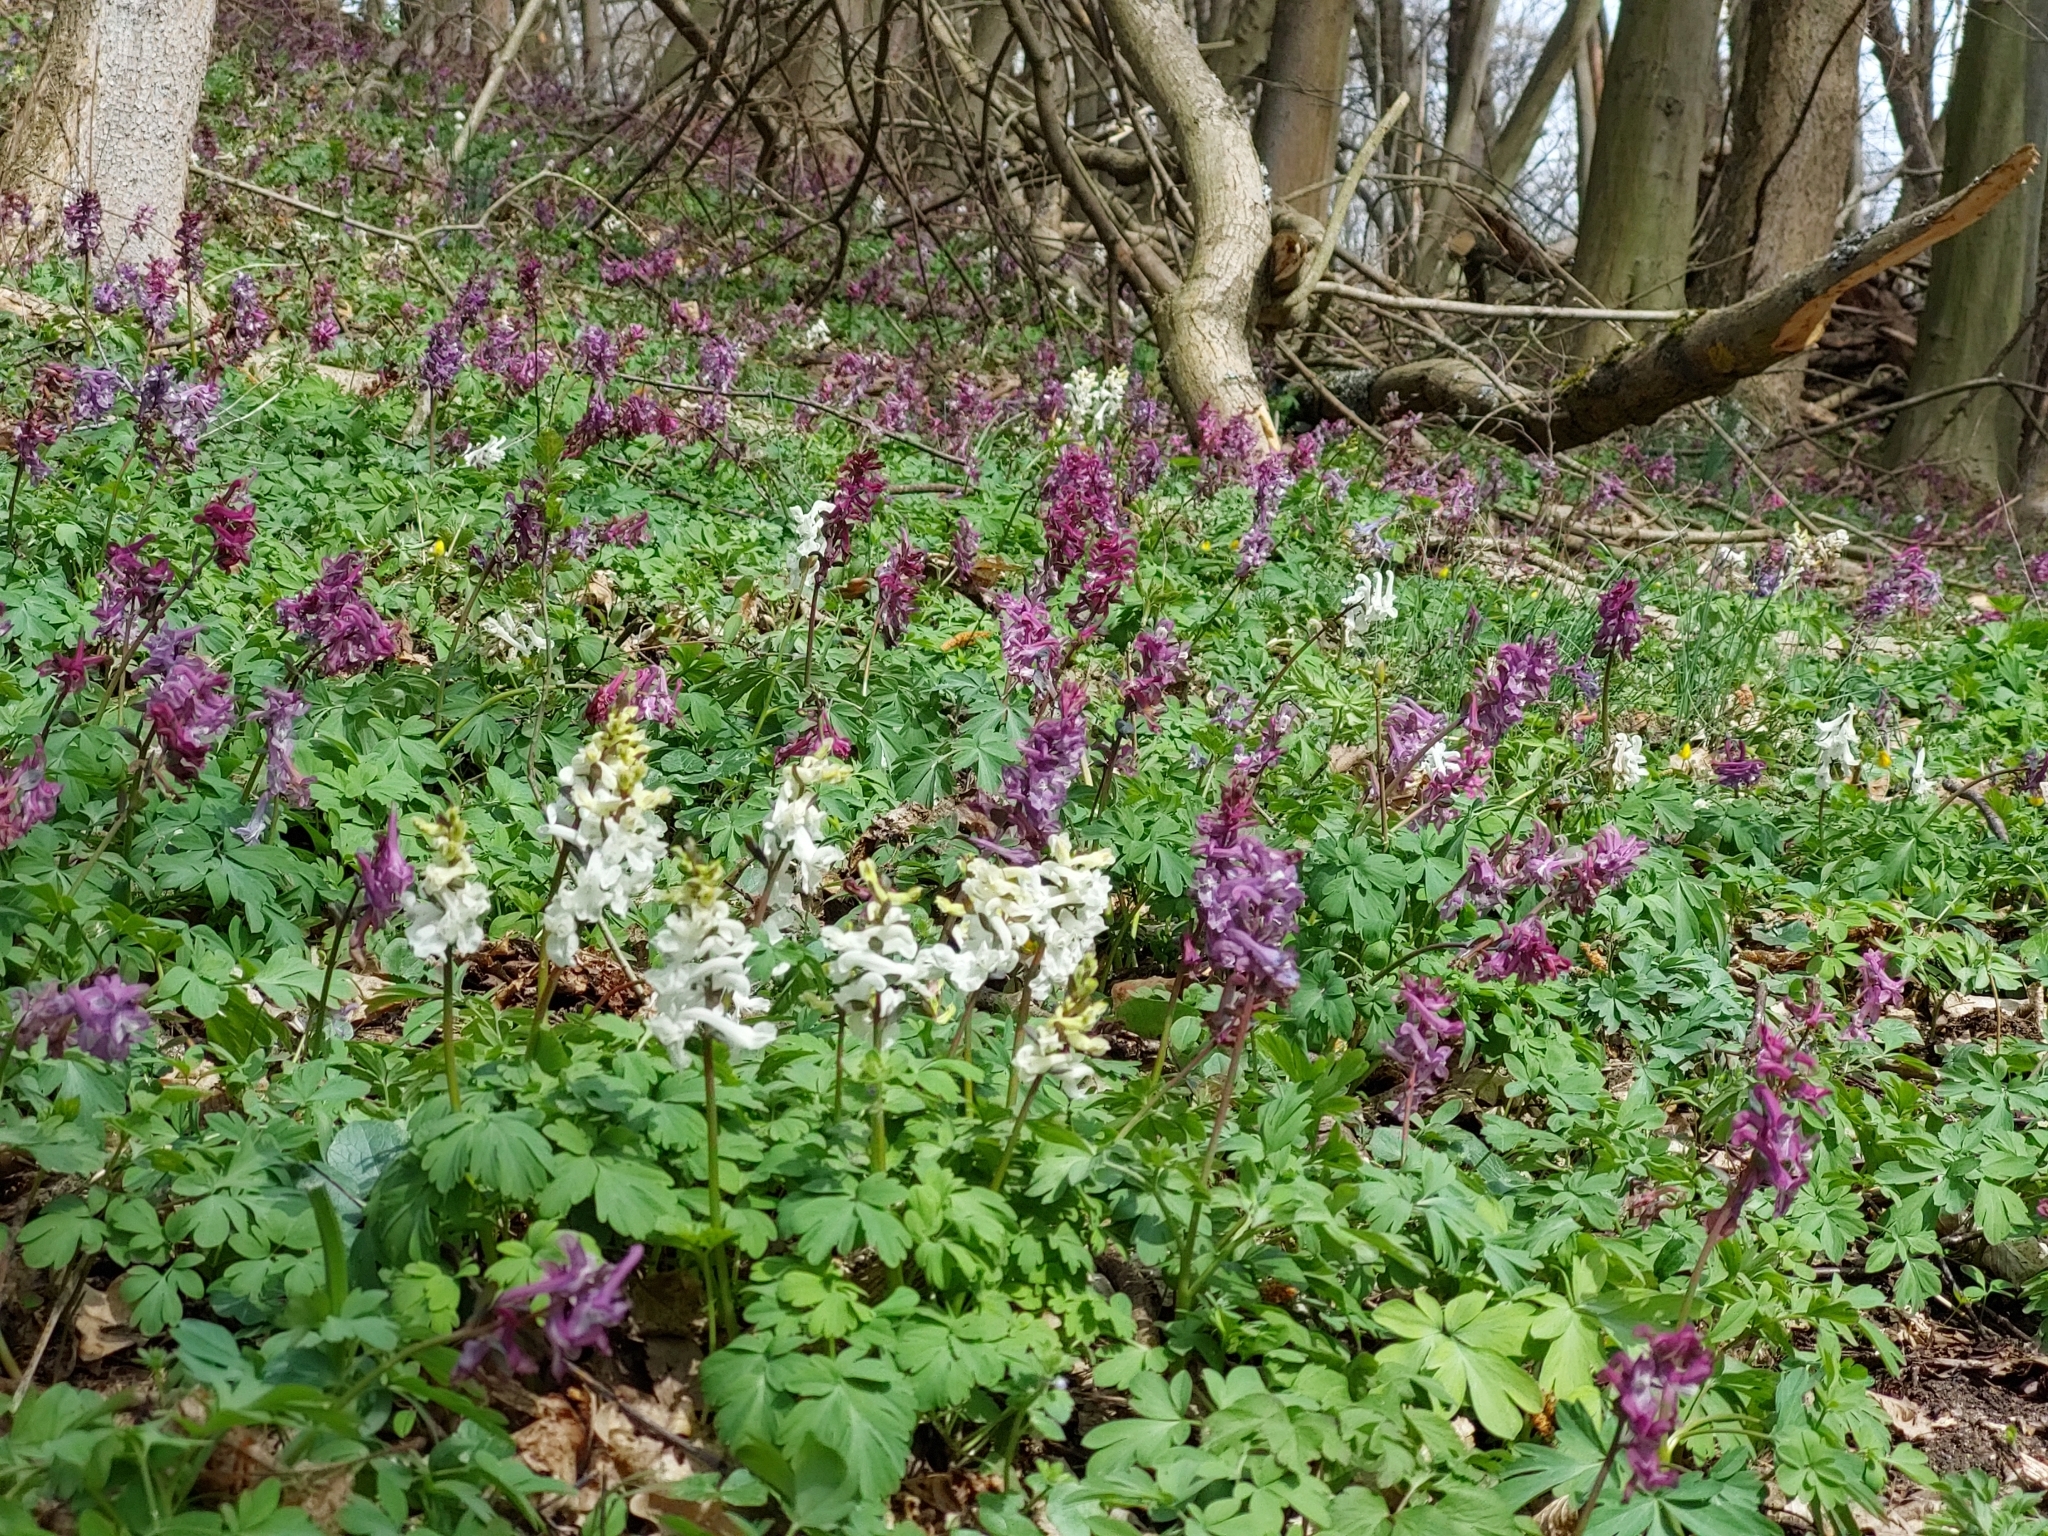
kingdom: Plantae
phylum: Tracheophyta
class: Magnoliopsida
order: Ranunculales
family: Papaveraceae
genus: Corydalis
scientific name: Corydalis cava
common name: Hollowroot
